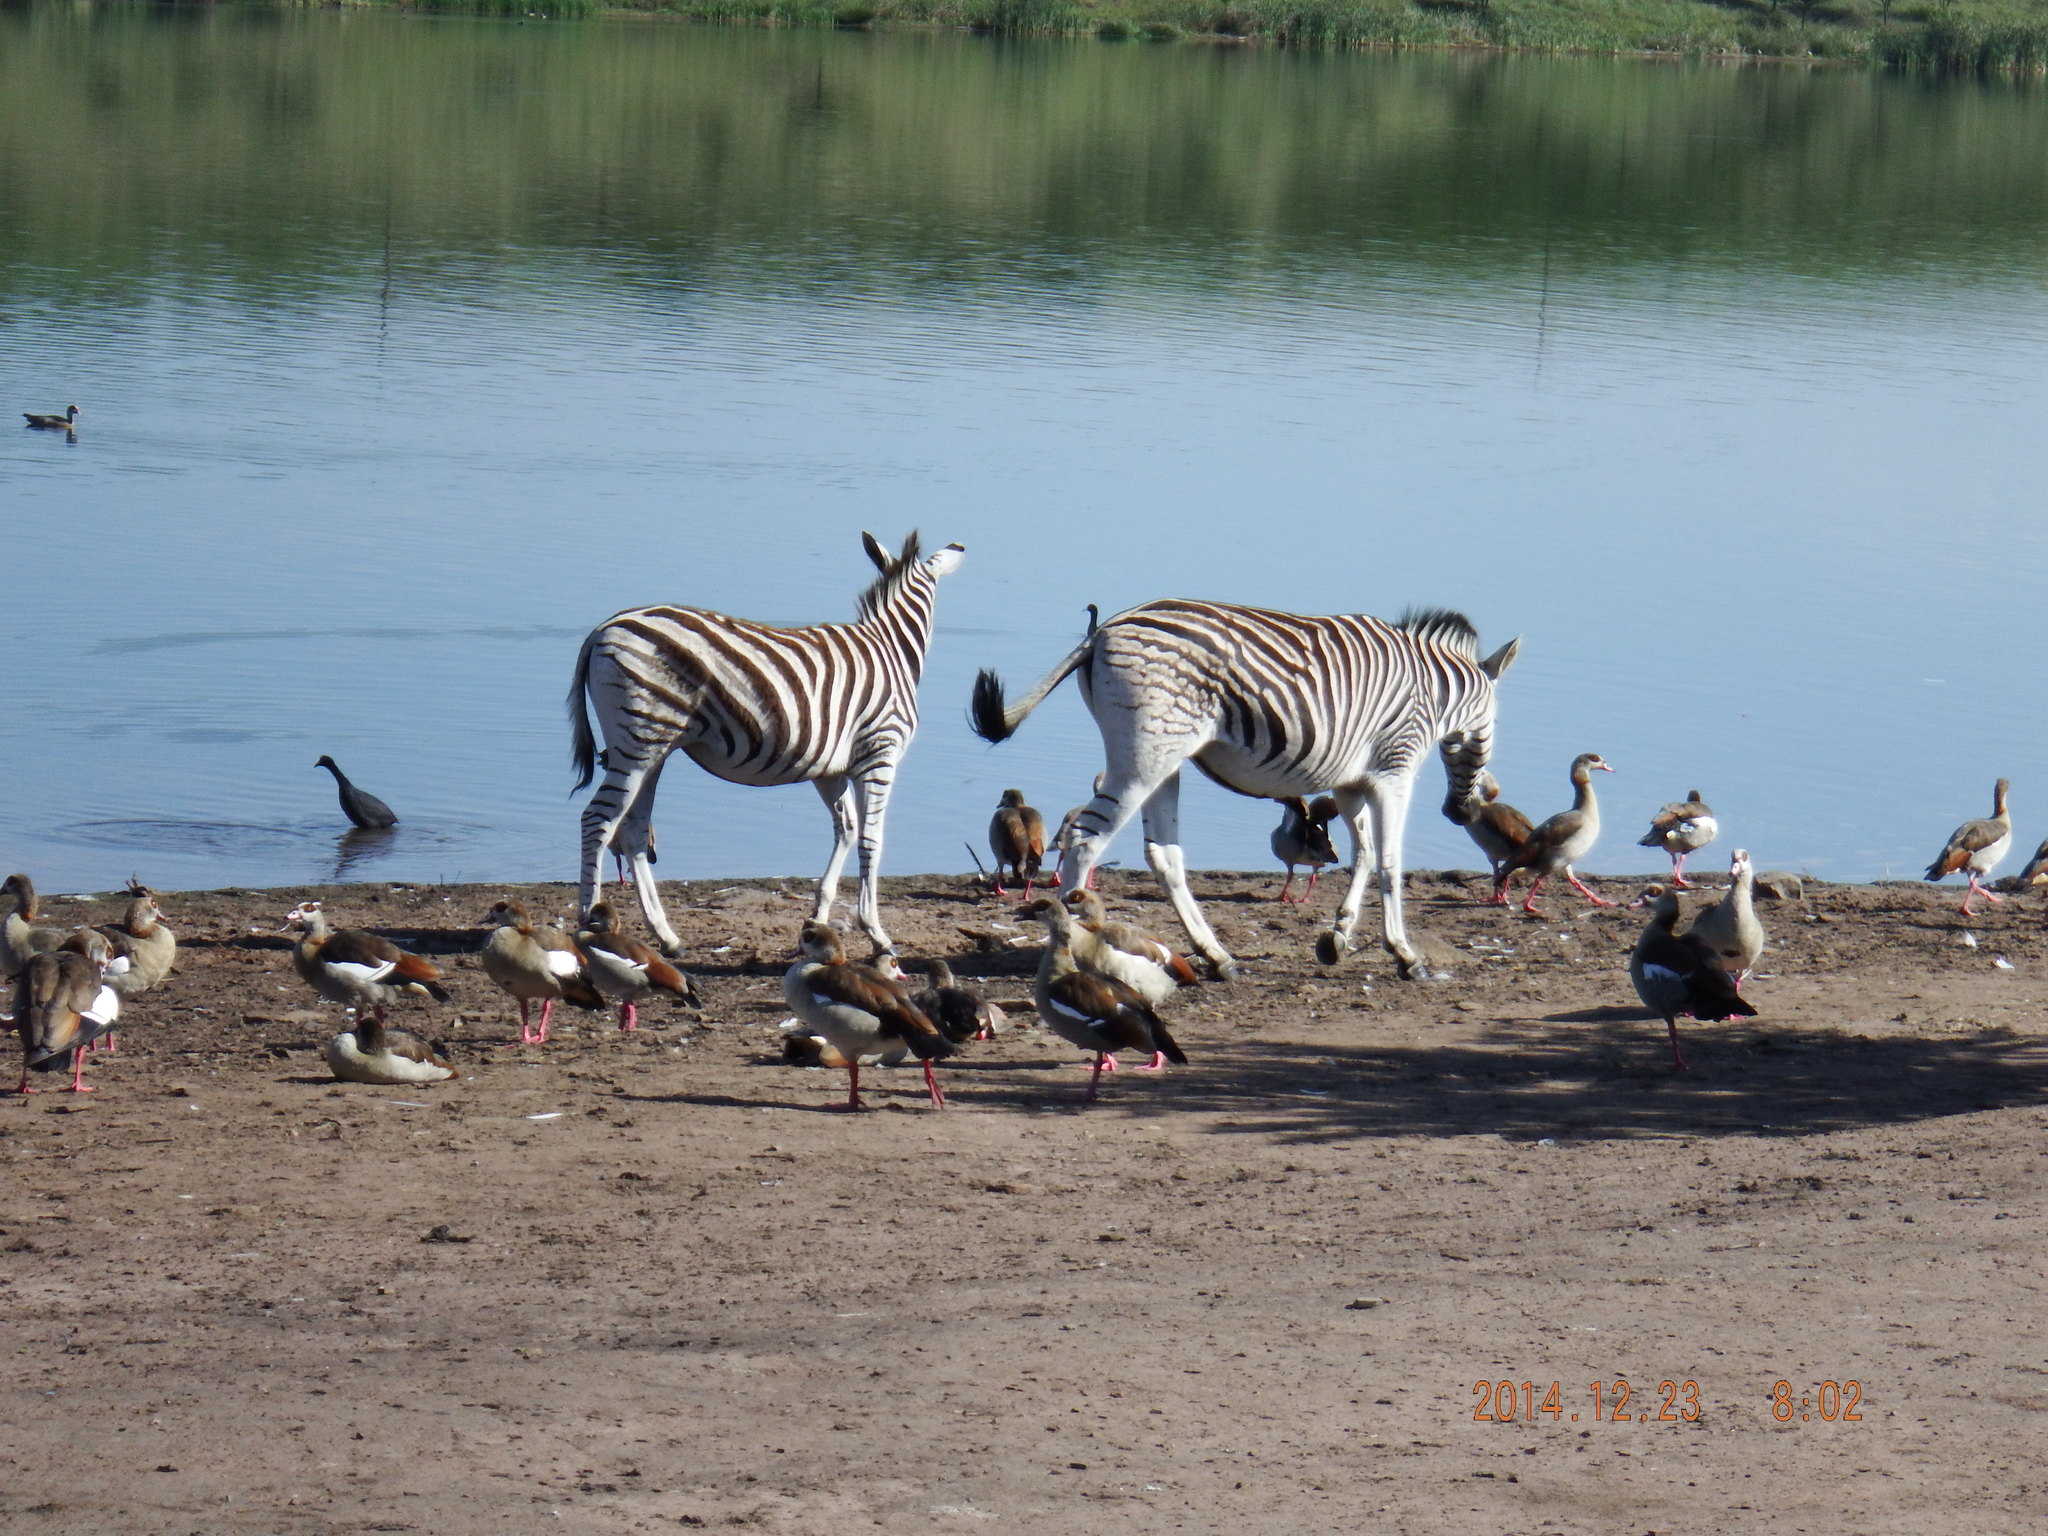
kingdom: Animalia
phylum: Chordata
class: Aves
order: Anseriformes
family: Anatidae
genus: Alopochen
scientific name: Alopochen aegyptiaca
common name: Egyptian goose
